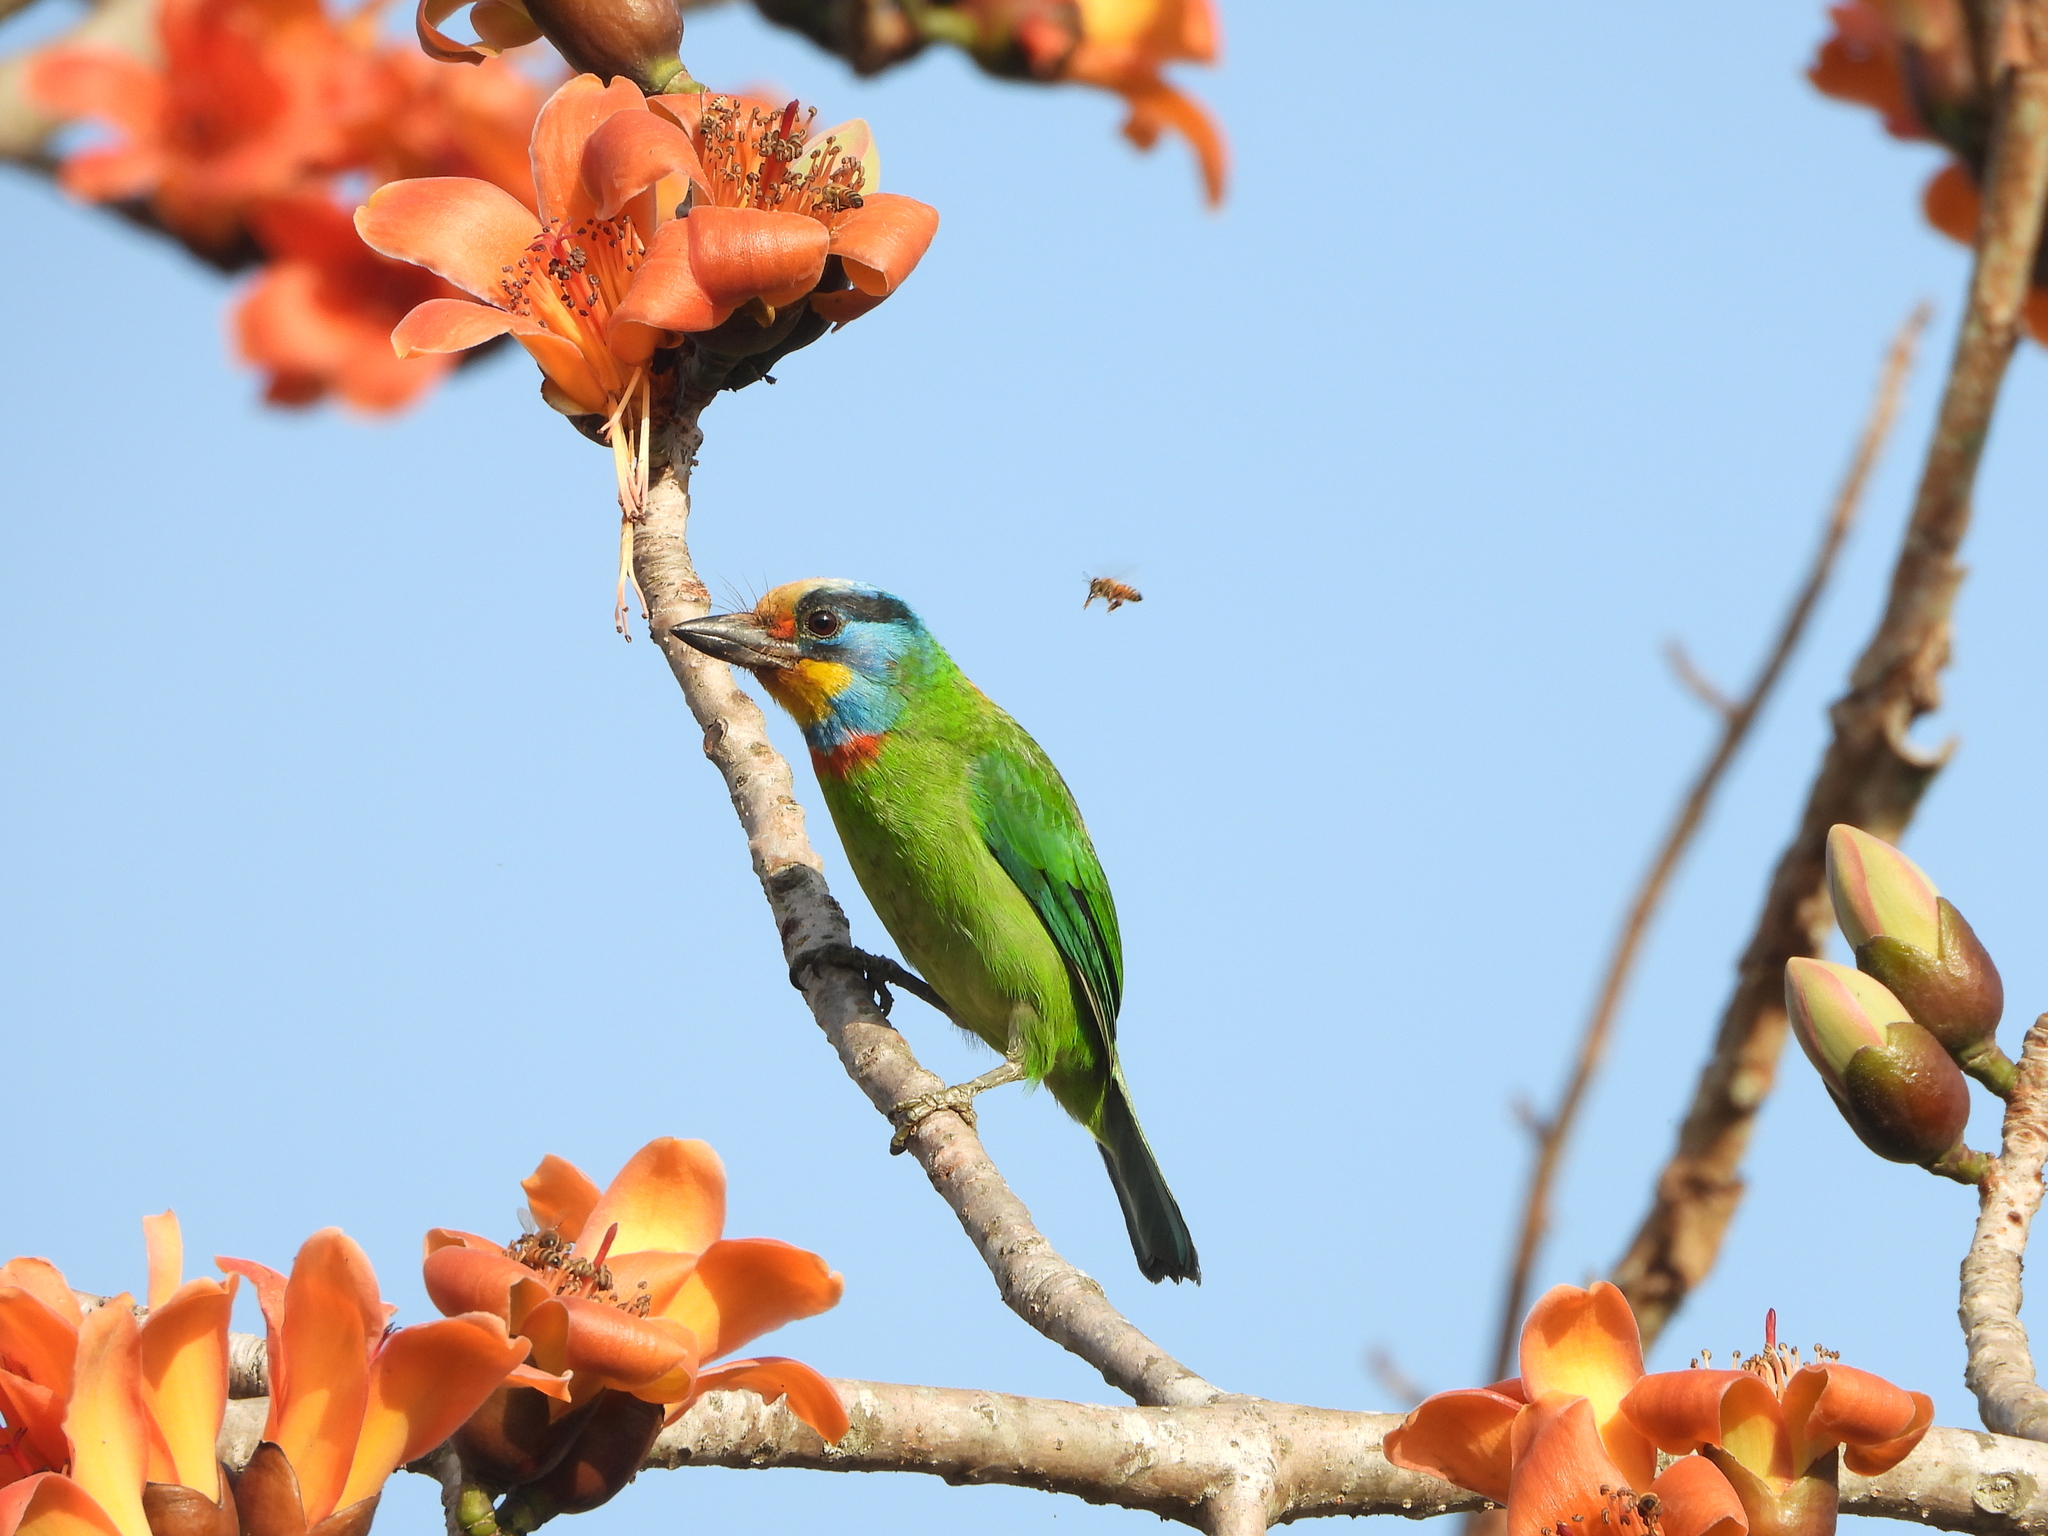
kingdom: Animalia
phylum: Chordata
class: Aves
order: Piciformes
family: Megalaimidae
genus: Psilopogon
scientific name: Psilopogon nuchalis
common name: Taiwan barbet
